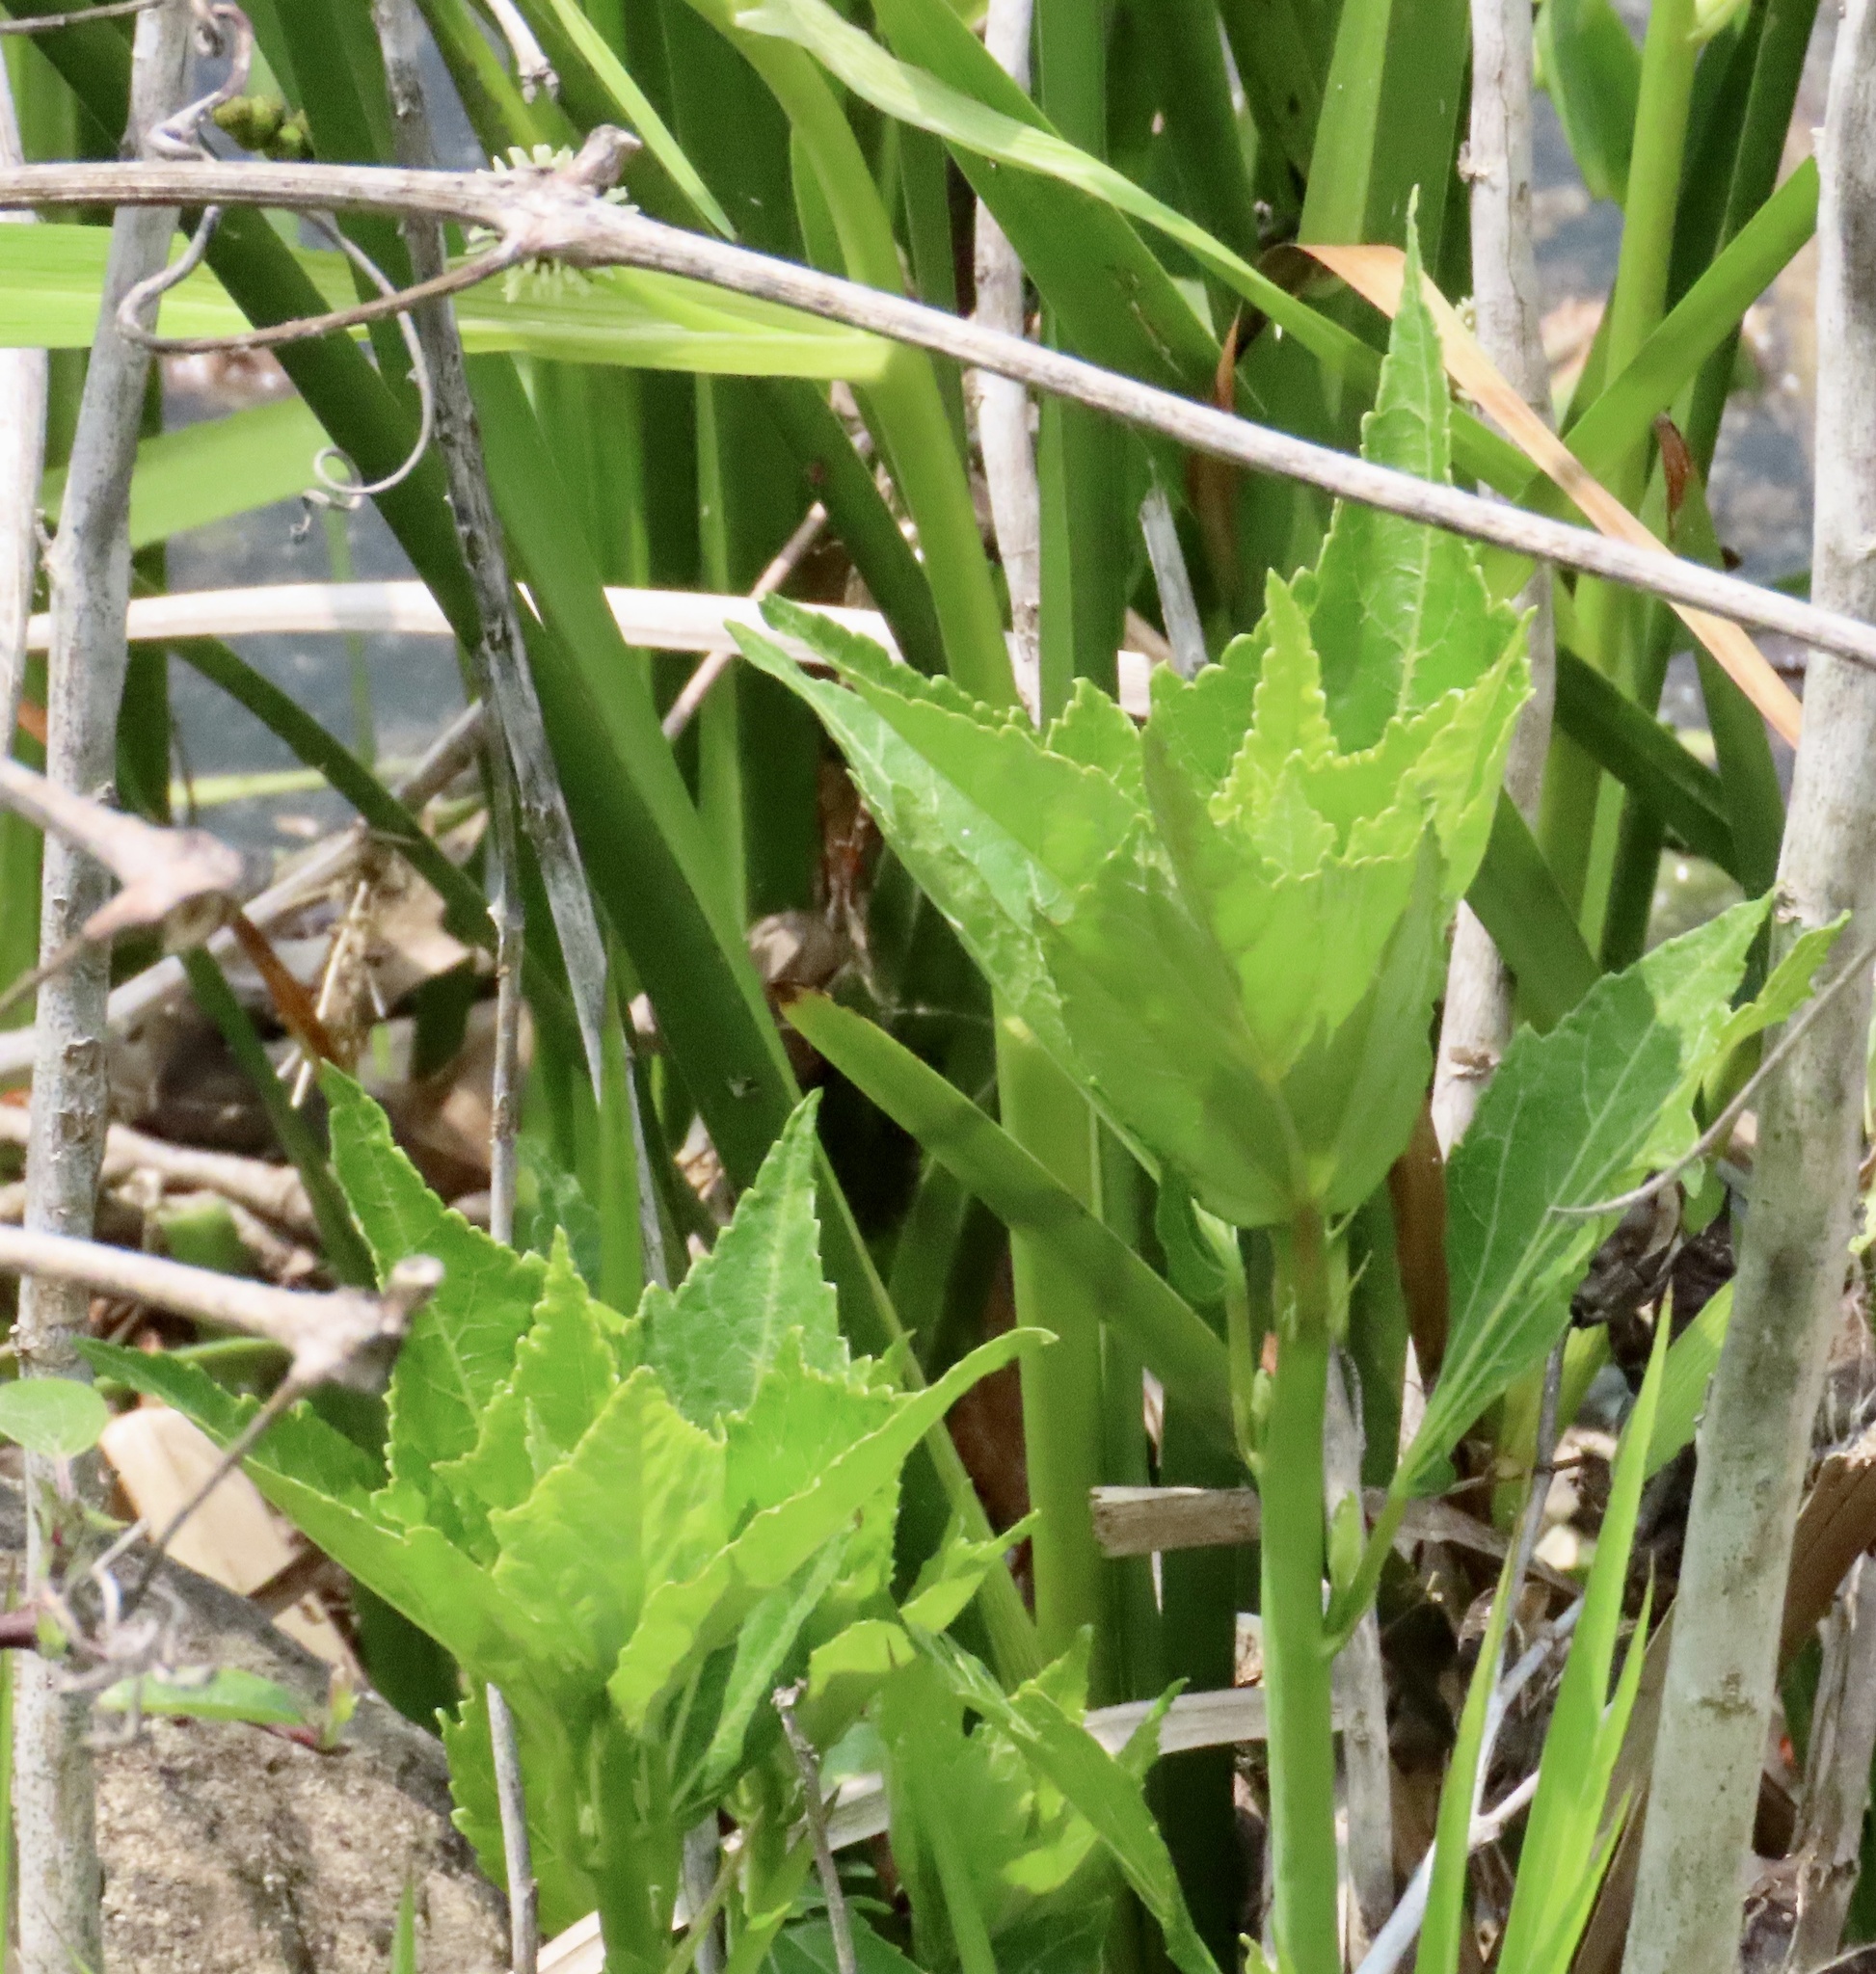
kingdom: Plantae
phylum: Tracheophyta
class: Magnoliopsida
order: Malvales
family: Malvaceae
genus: Hibiscus
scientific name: Hibiscus moscheutos
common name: Common rose-mallow
